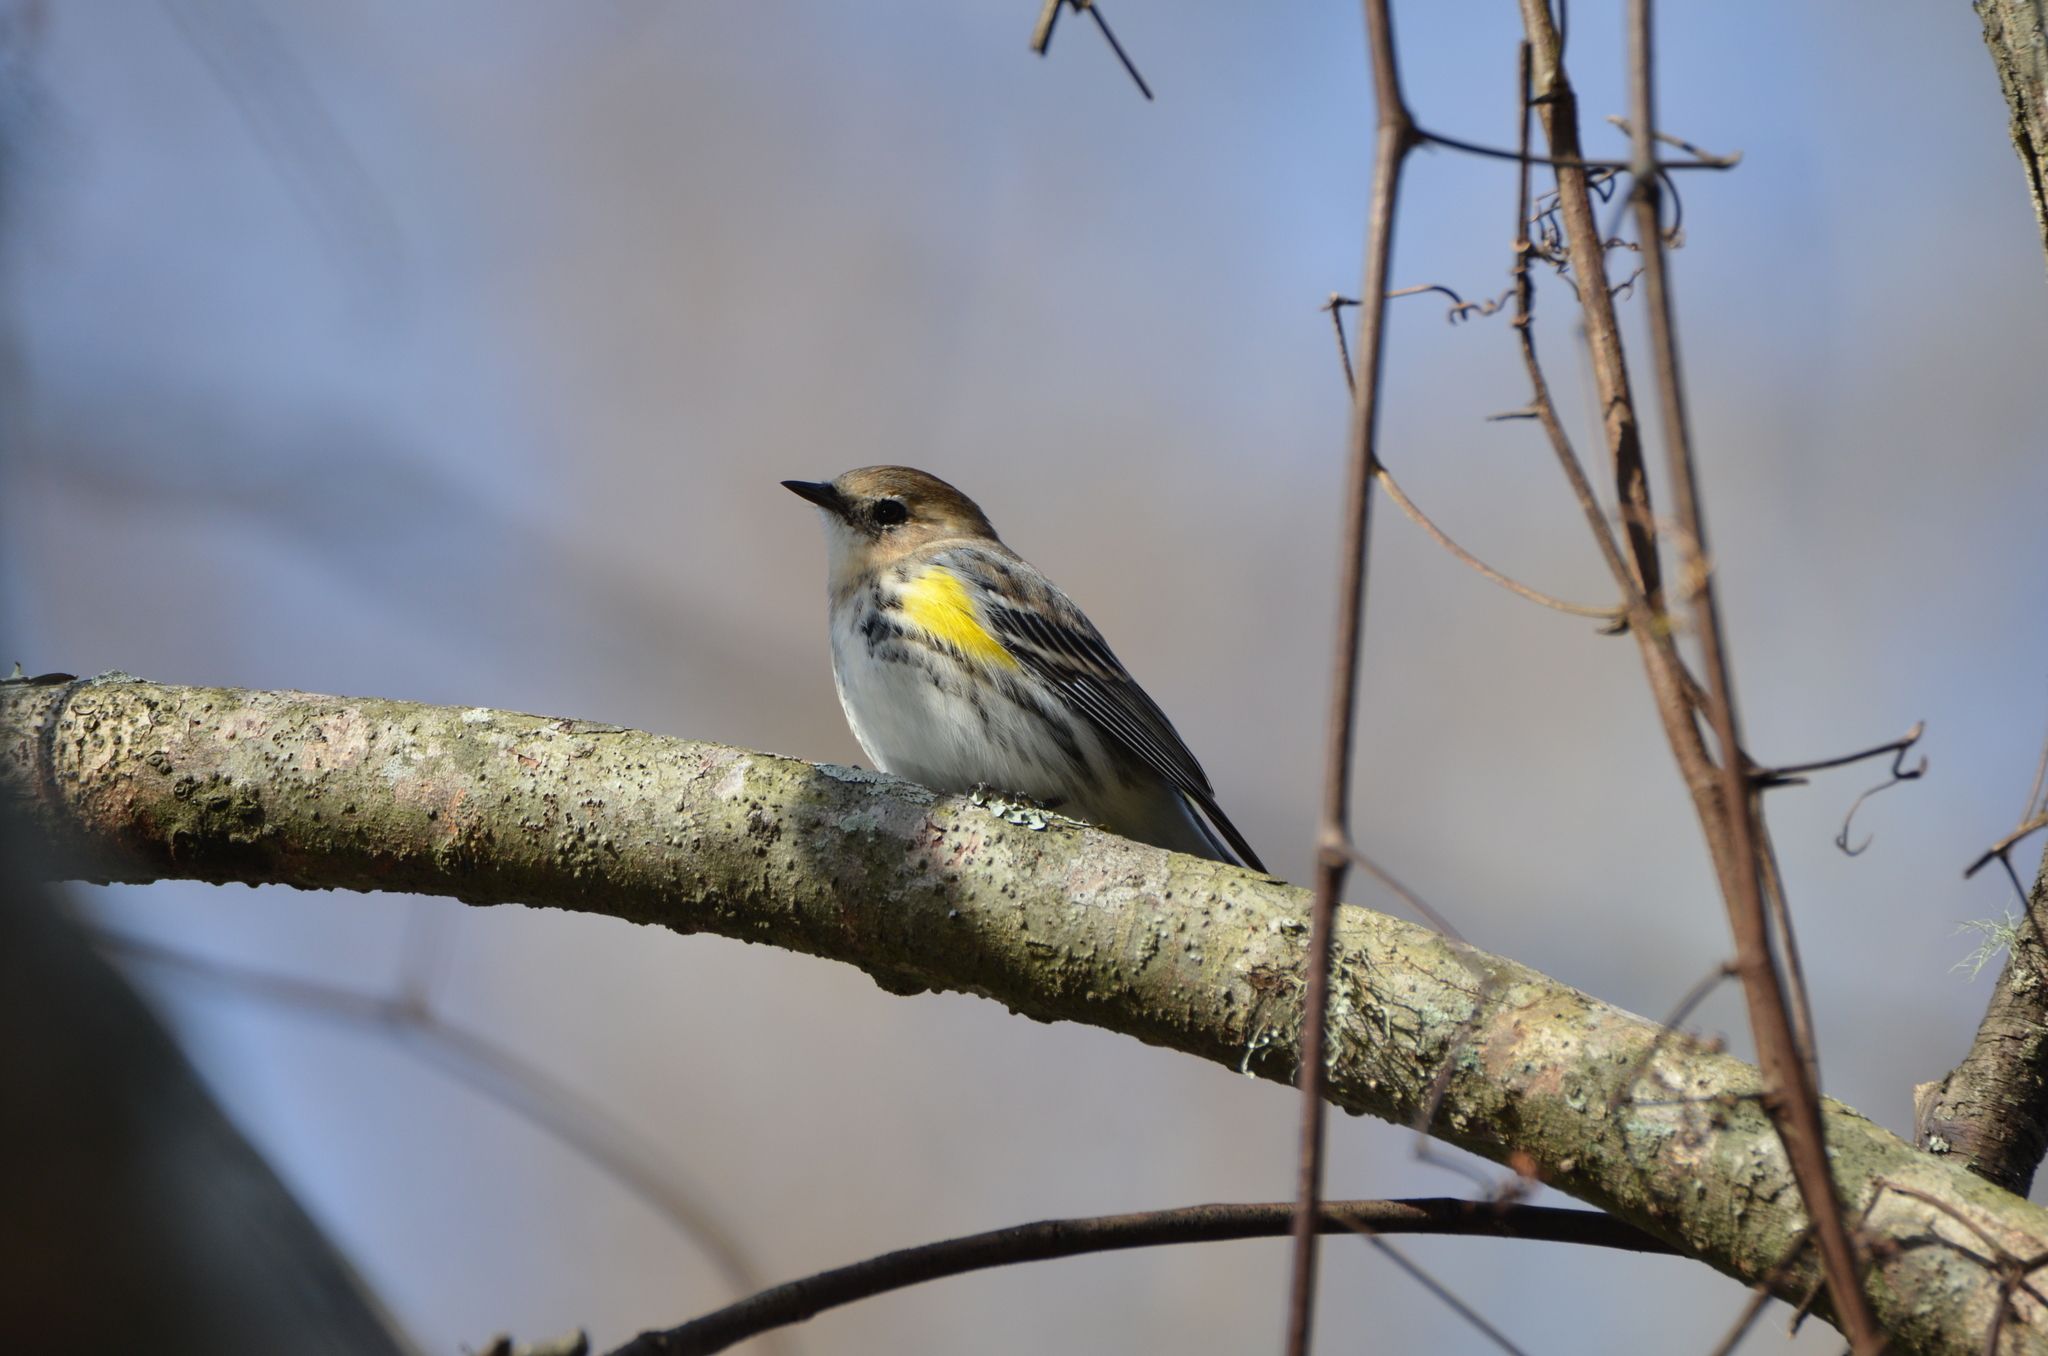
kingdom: Animalia
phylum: Chordata
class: Aves
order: Passeriformes
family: Parulidae
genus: Setophaga
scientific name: Setophaga coronata
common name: Myrtle warbler
